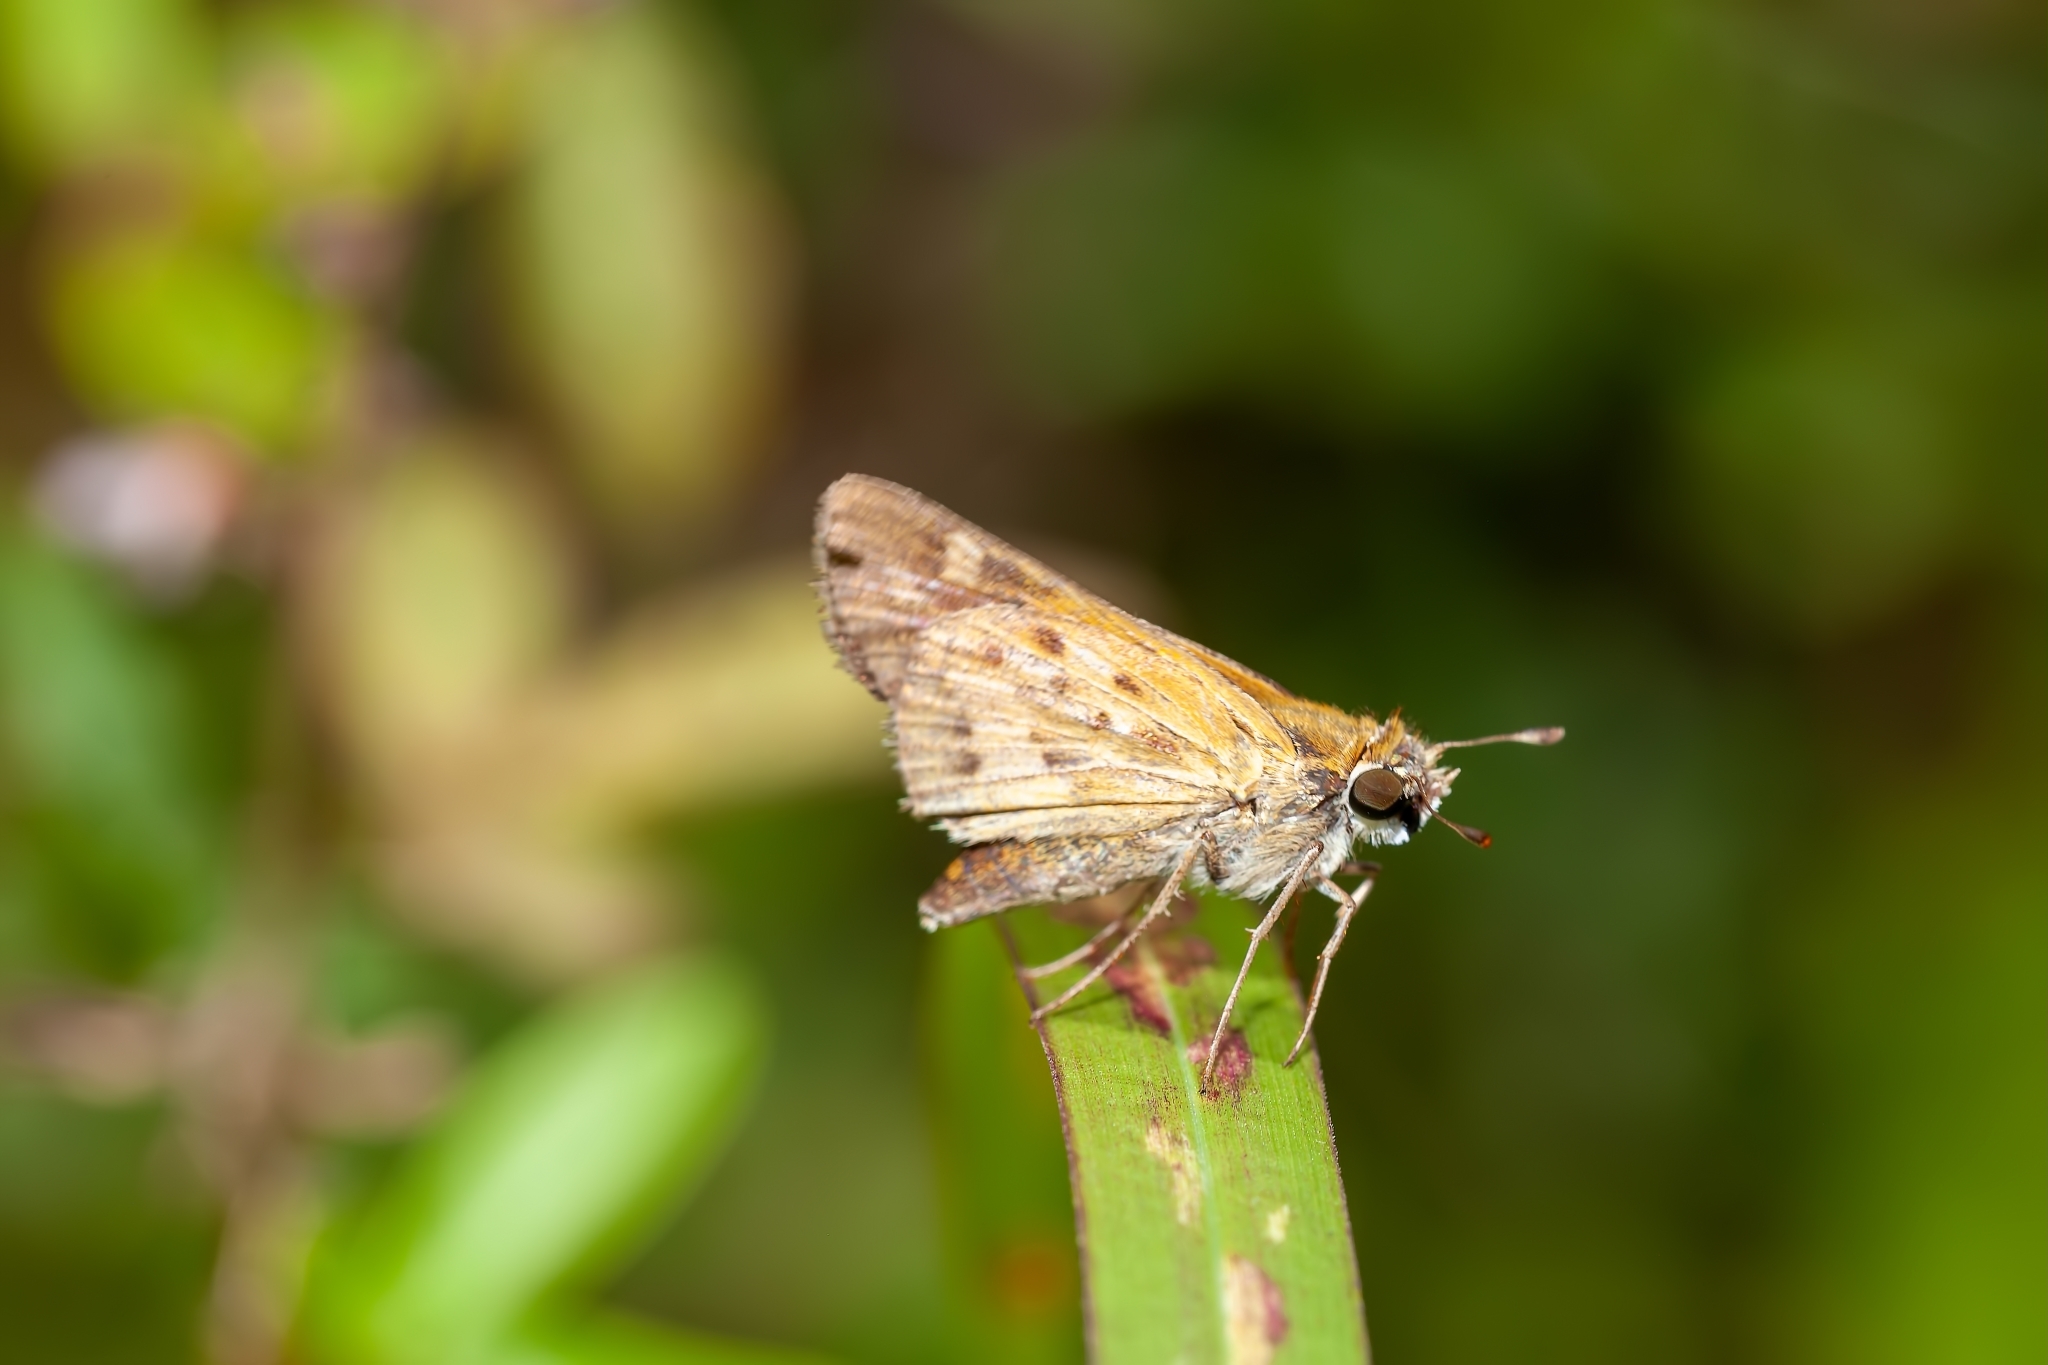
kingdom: Animalia
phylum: Arthropoda
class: Insecta
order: Lepidoptera
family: Hesperiidae
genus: Hylephila
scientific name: Hylephila phyleus
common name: Fiery skipper
